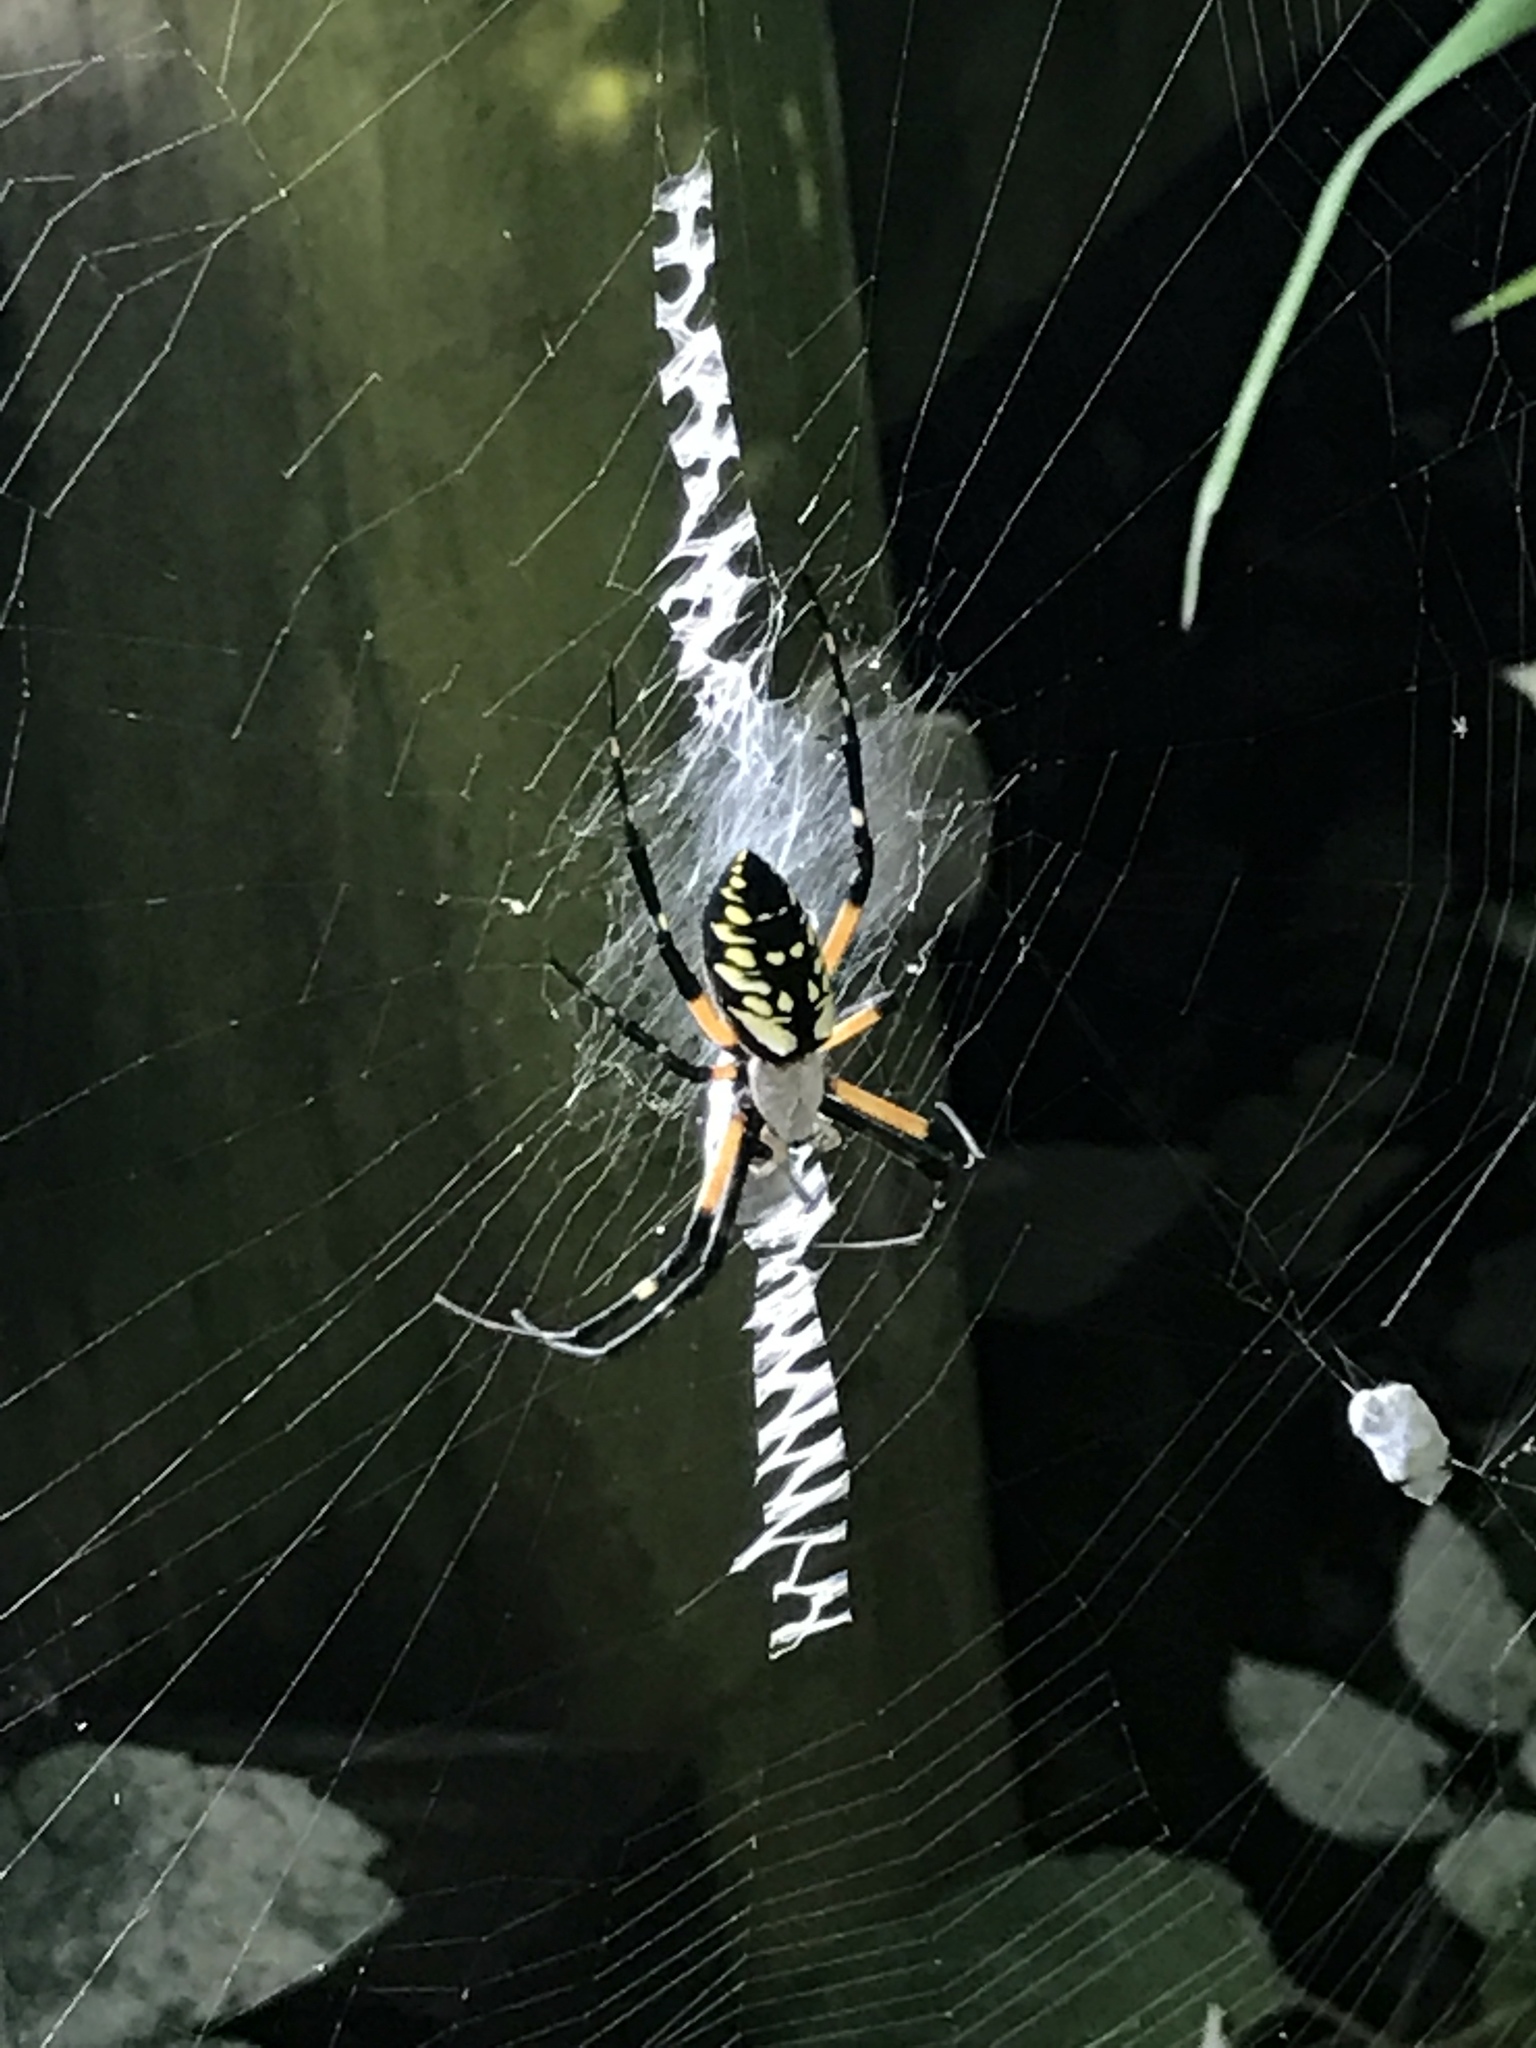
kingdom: Animalia
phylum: Arthropoda
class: Arachnida
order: Araneae
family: Araneidae
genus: Argiope
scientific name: Argiope aurantia
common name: Orb weavers
